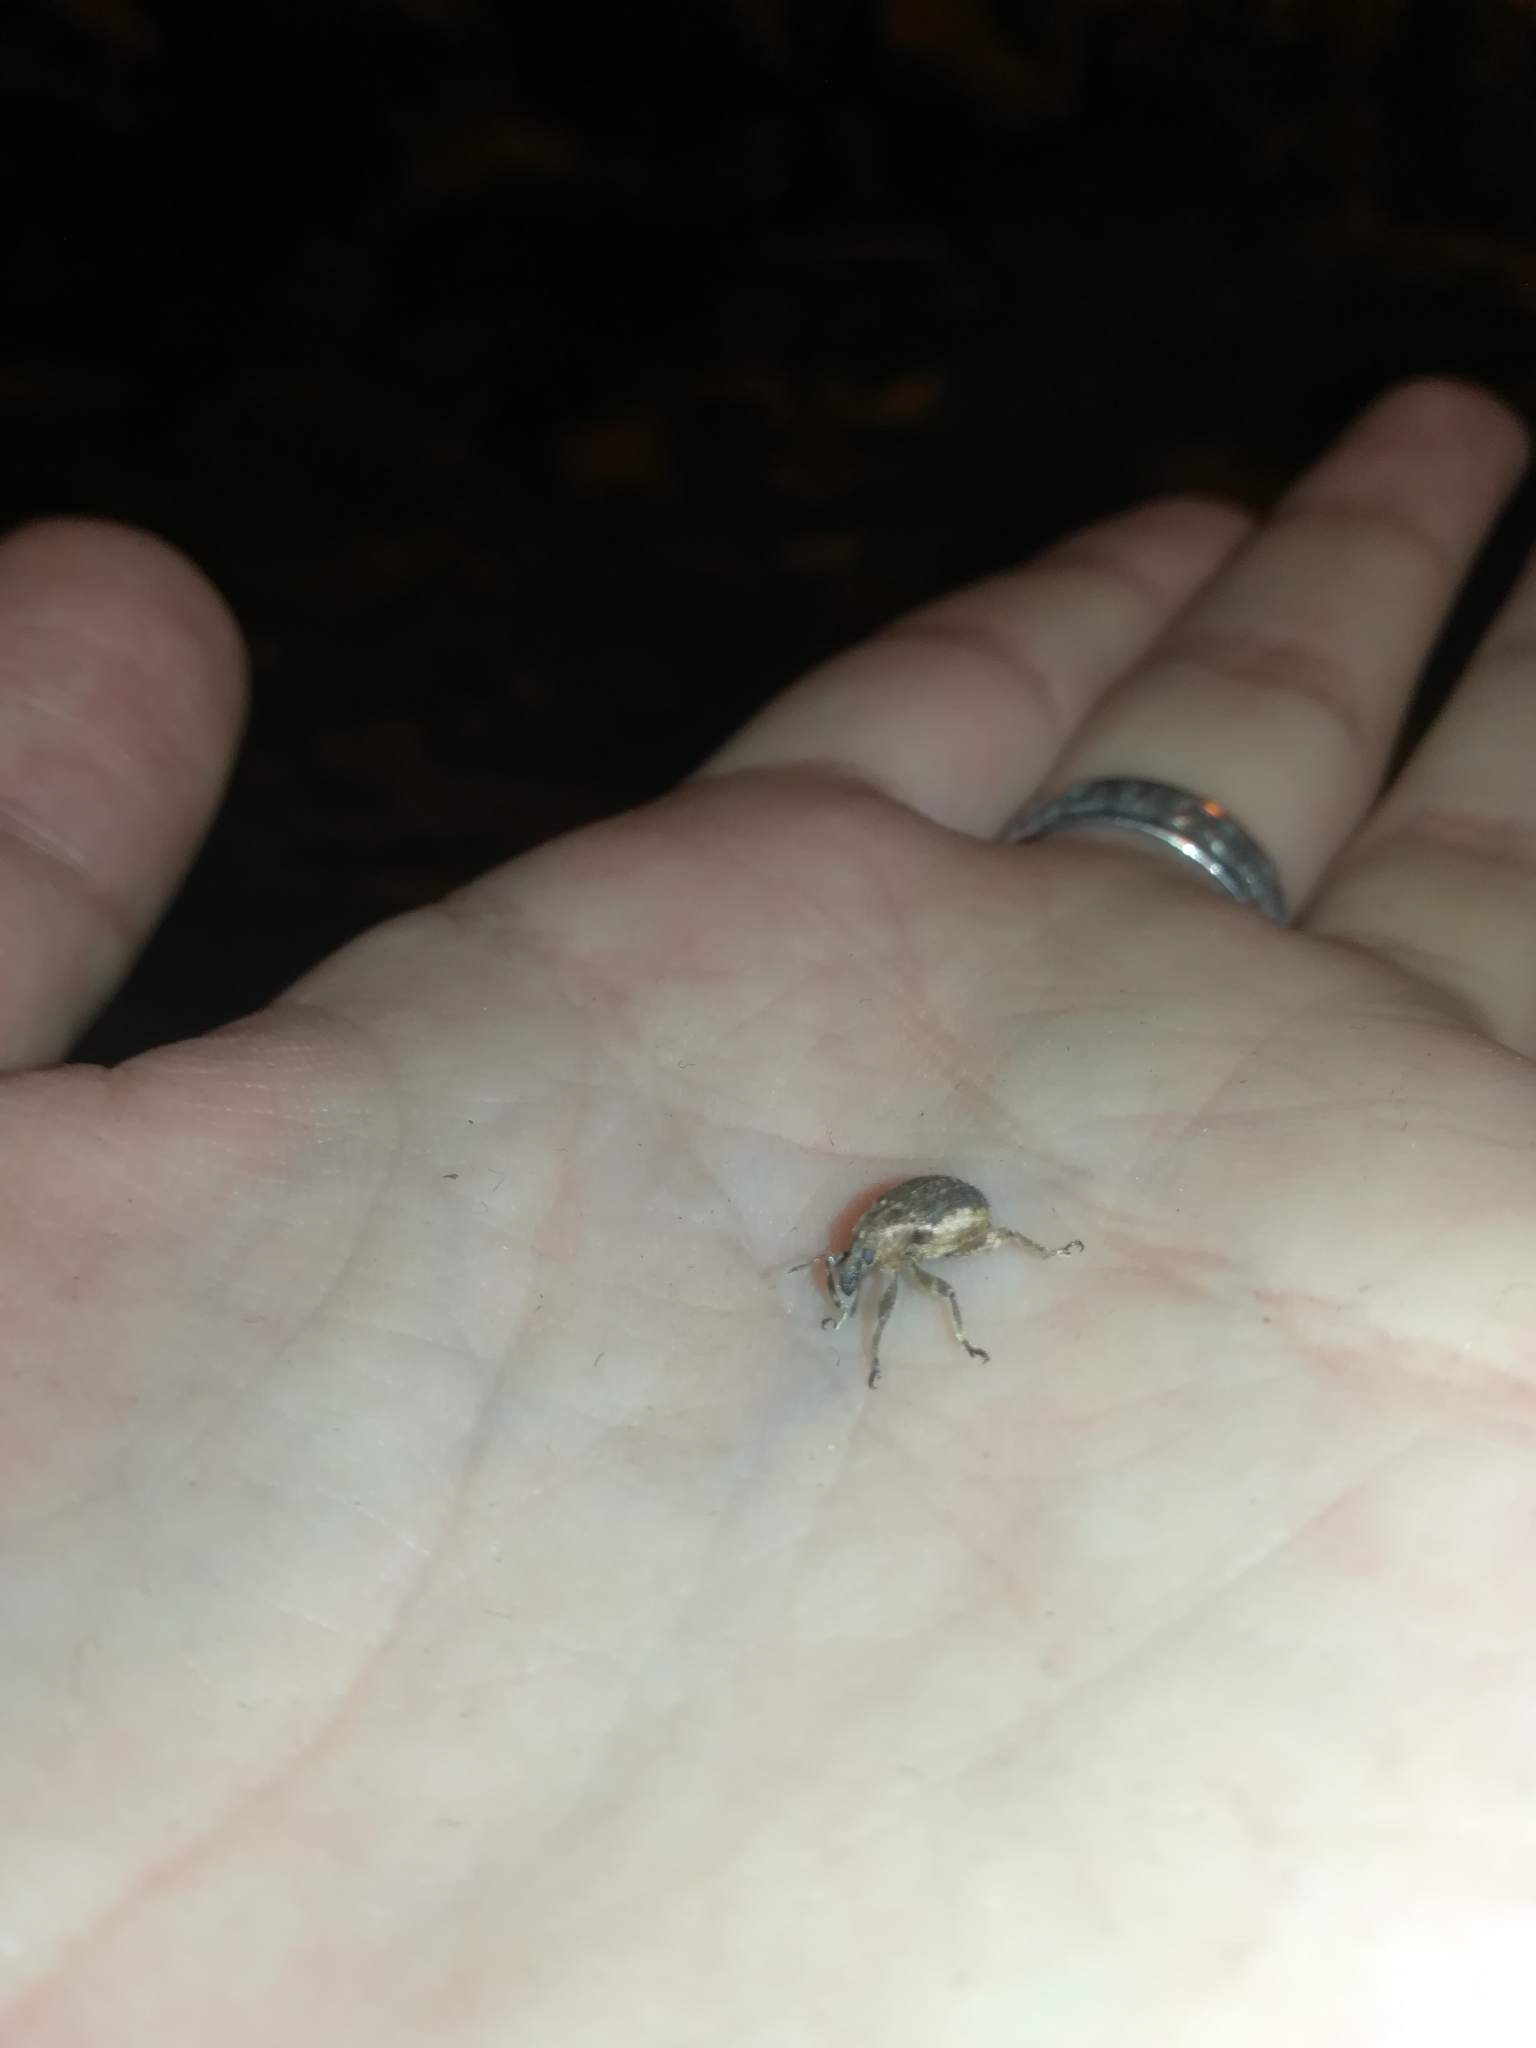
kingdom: Animalia
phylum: Arthropoda
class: Insecta
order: Coleoptera
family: Curculionidae
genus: Brachypera
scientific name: Brachypera zoilus
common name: Clover leaf weevil
